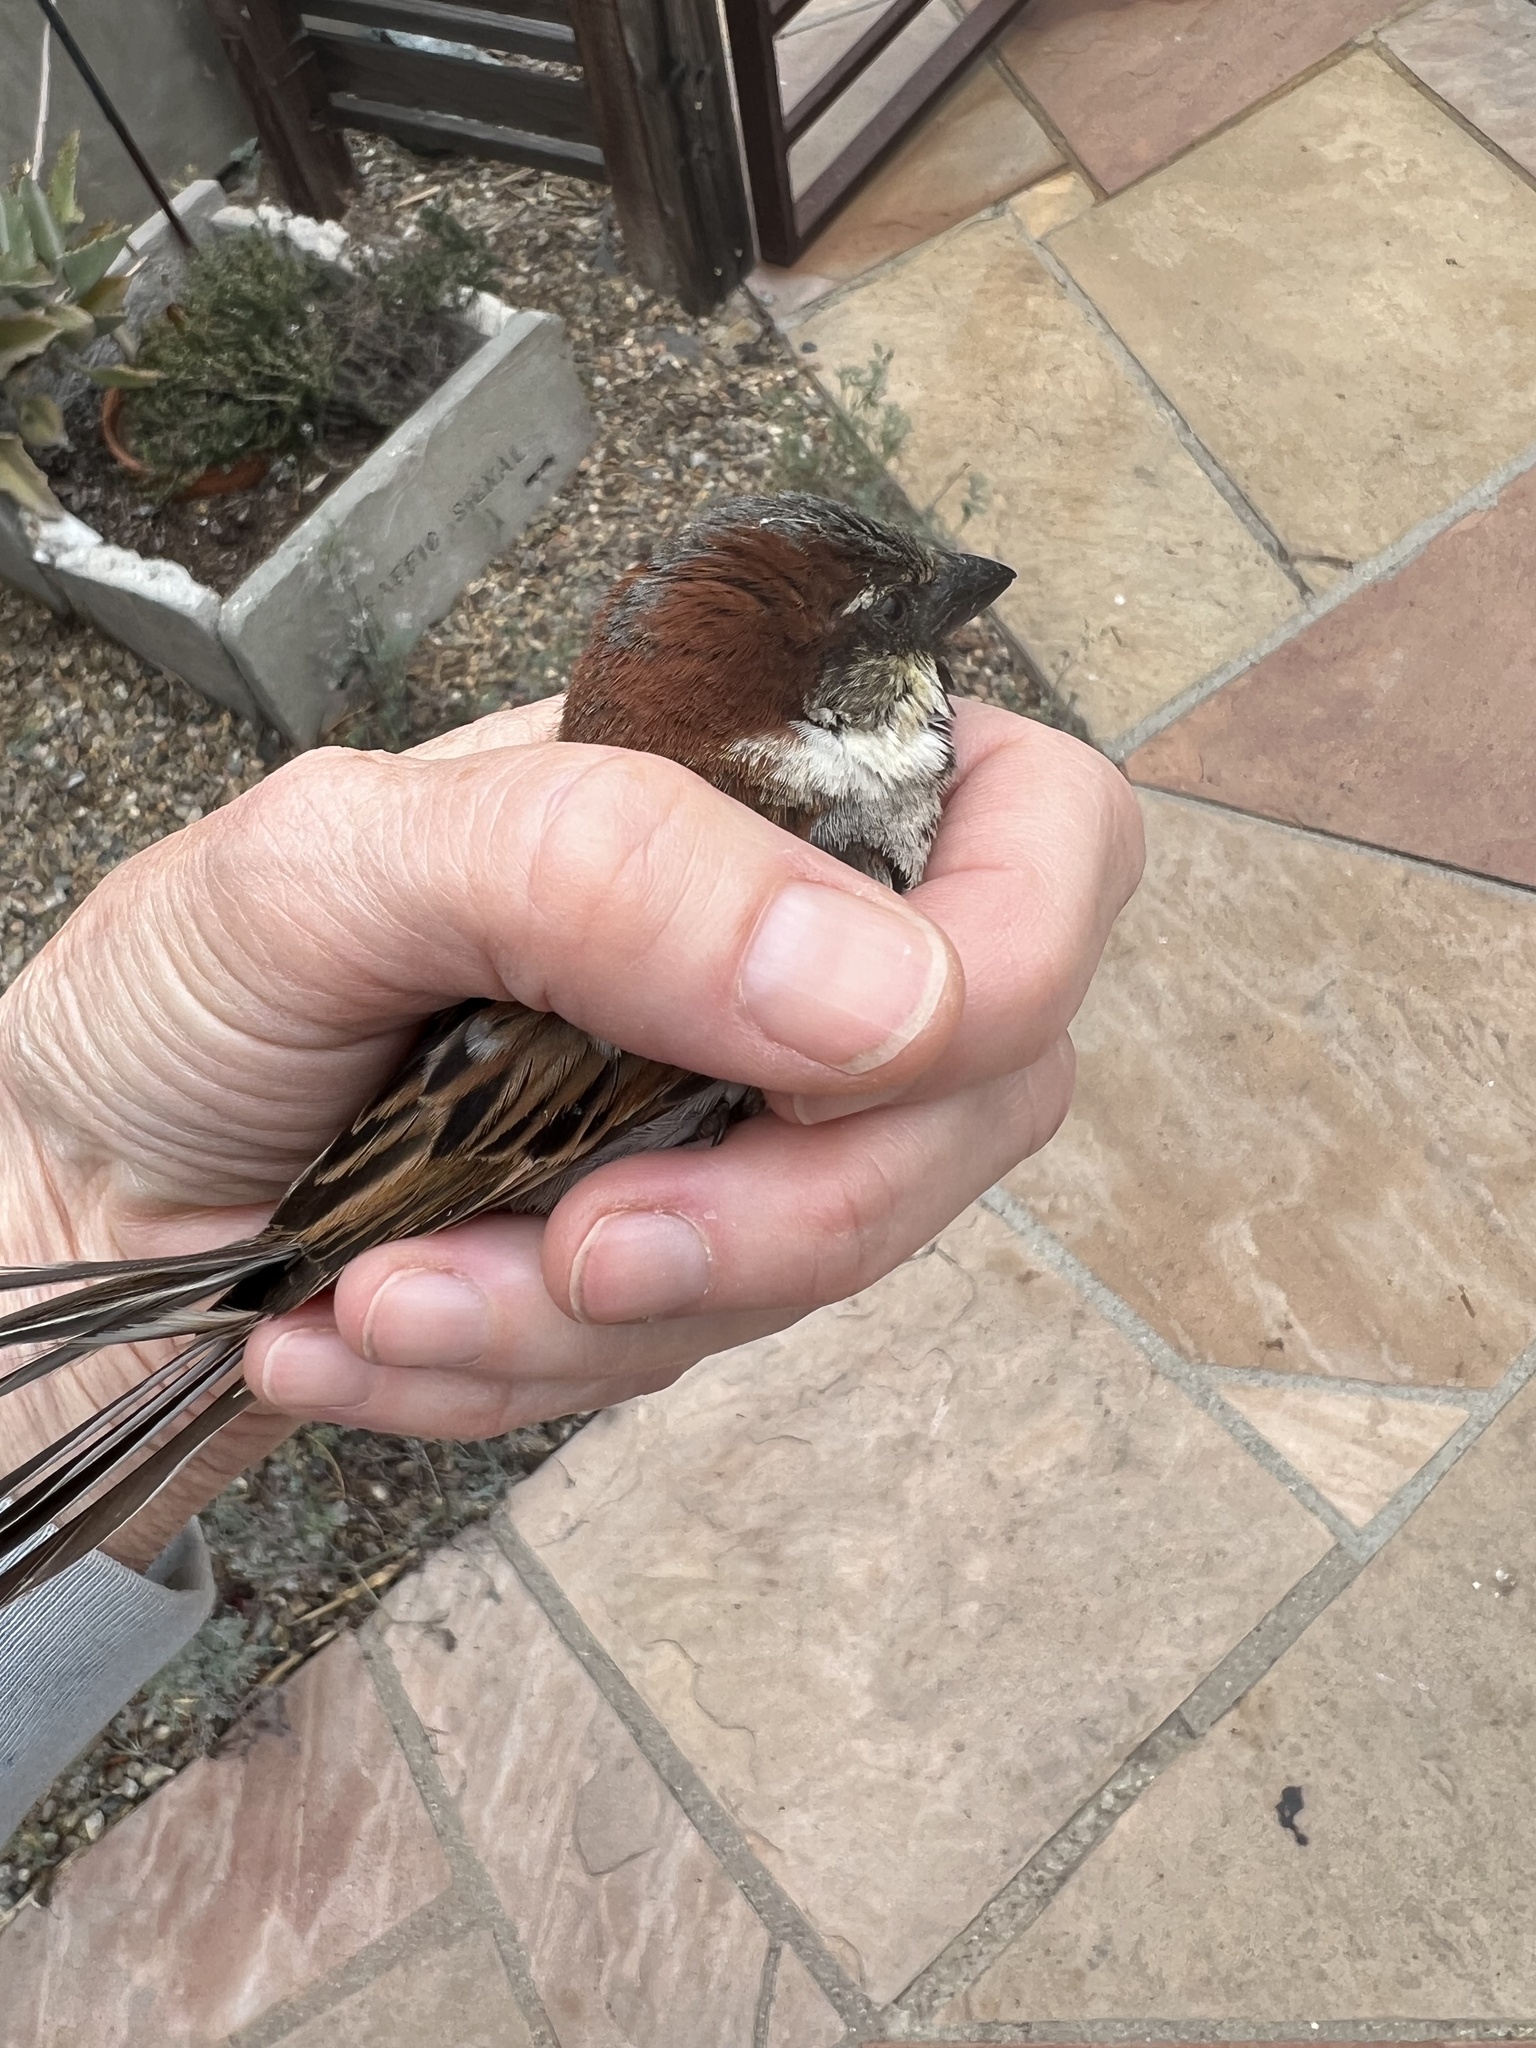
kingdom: Animalia
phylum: Chordata
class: Aves
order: Passeriformes
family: Passeridae
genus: Passer
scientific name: Passer domesticus
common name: House sparrow
